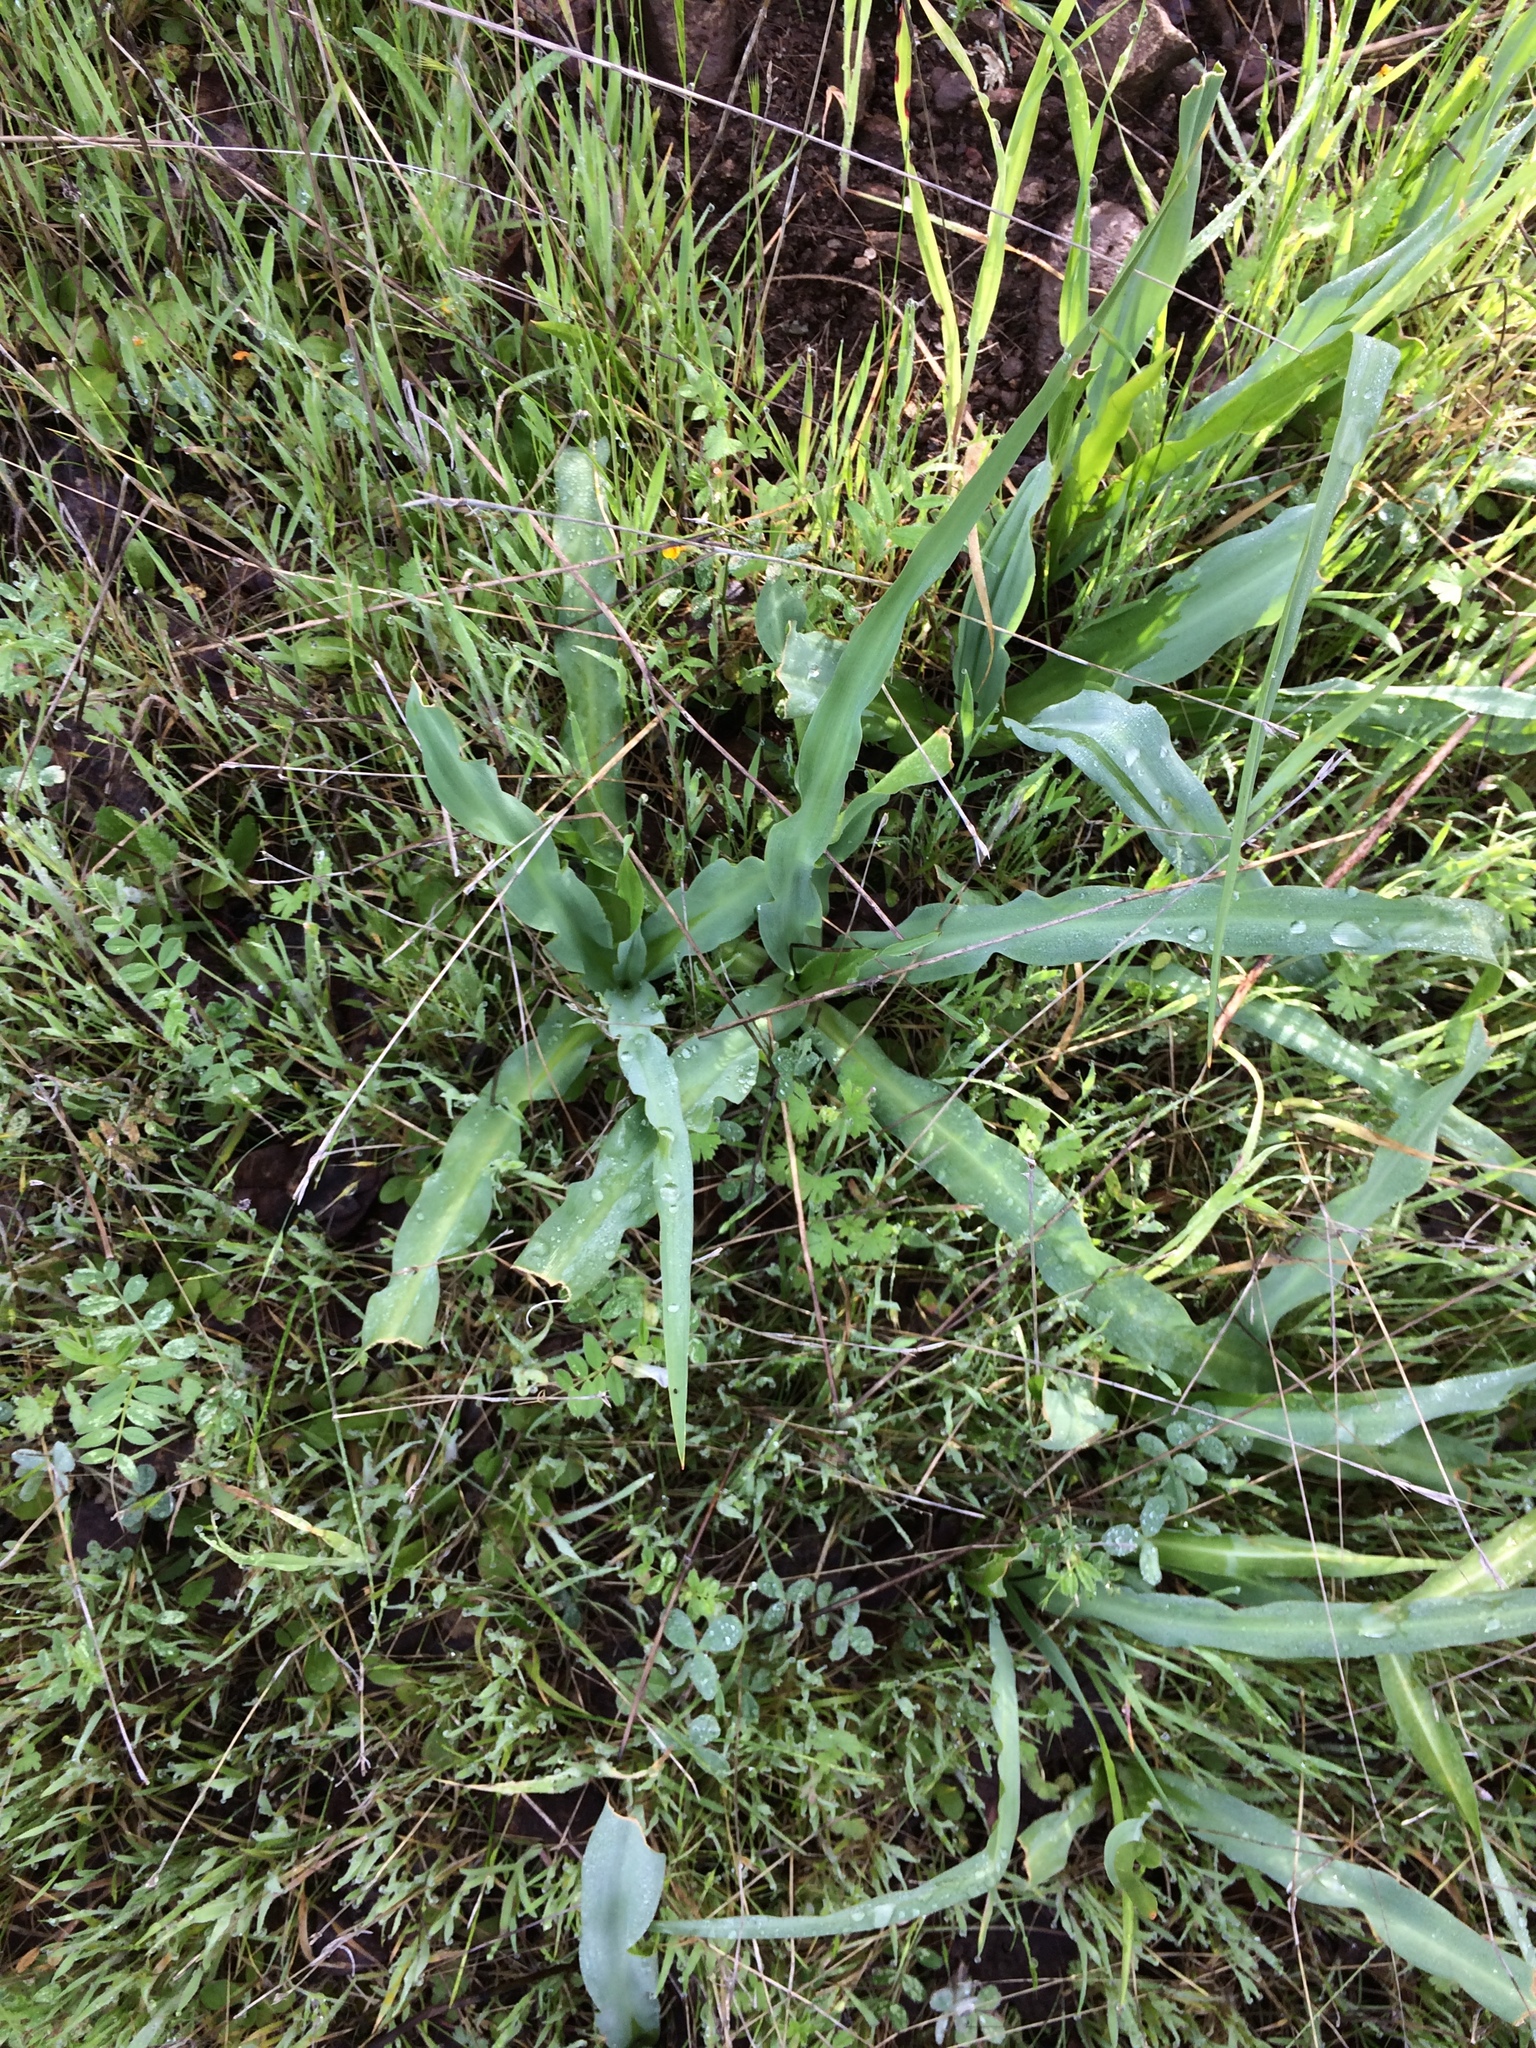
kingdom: Plantae
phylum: Tracheophyta
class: Liliopsida
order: Asparagales
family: Asparagaceae
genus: Chlorogalum
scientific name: Chlorogalum pomeridianum
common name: Amole
